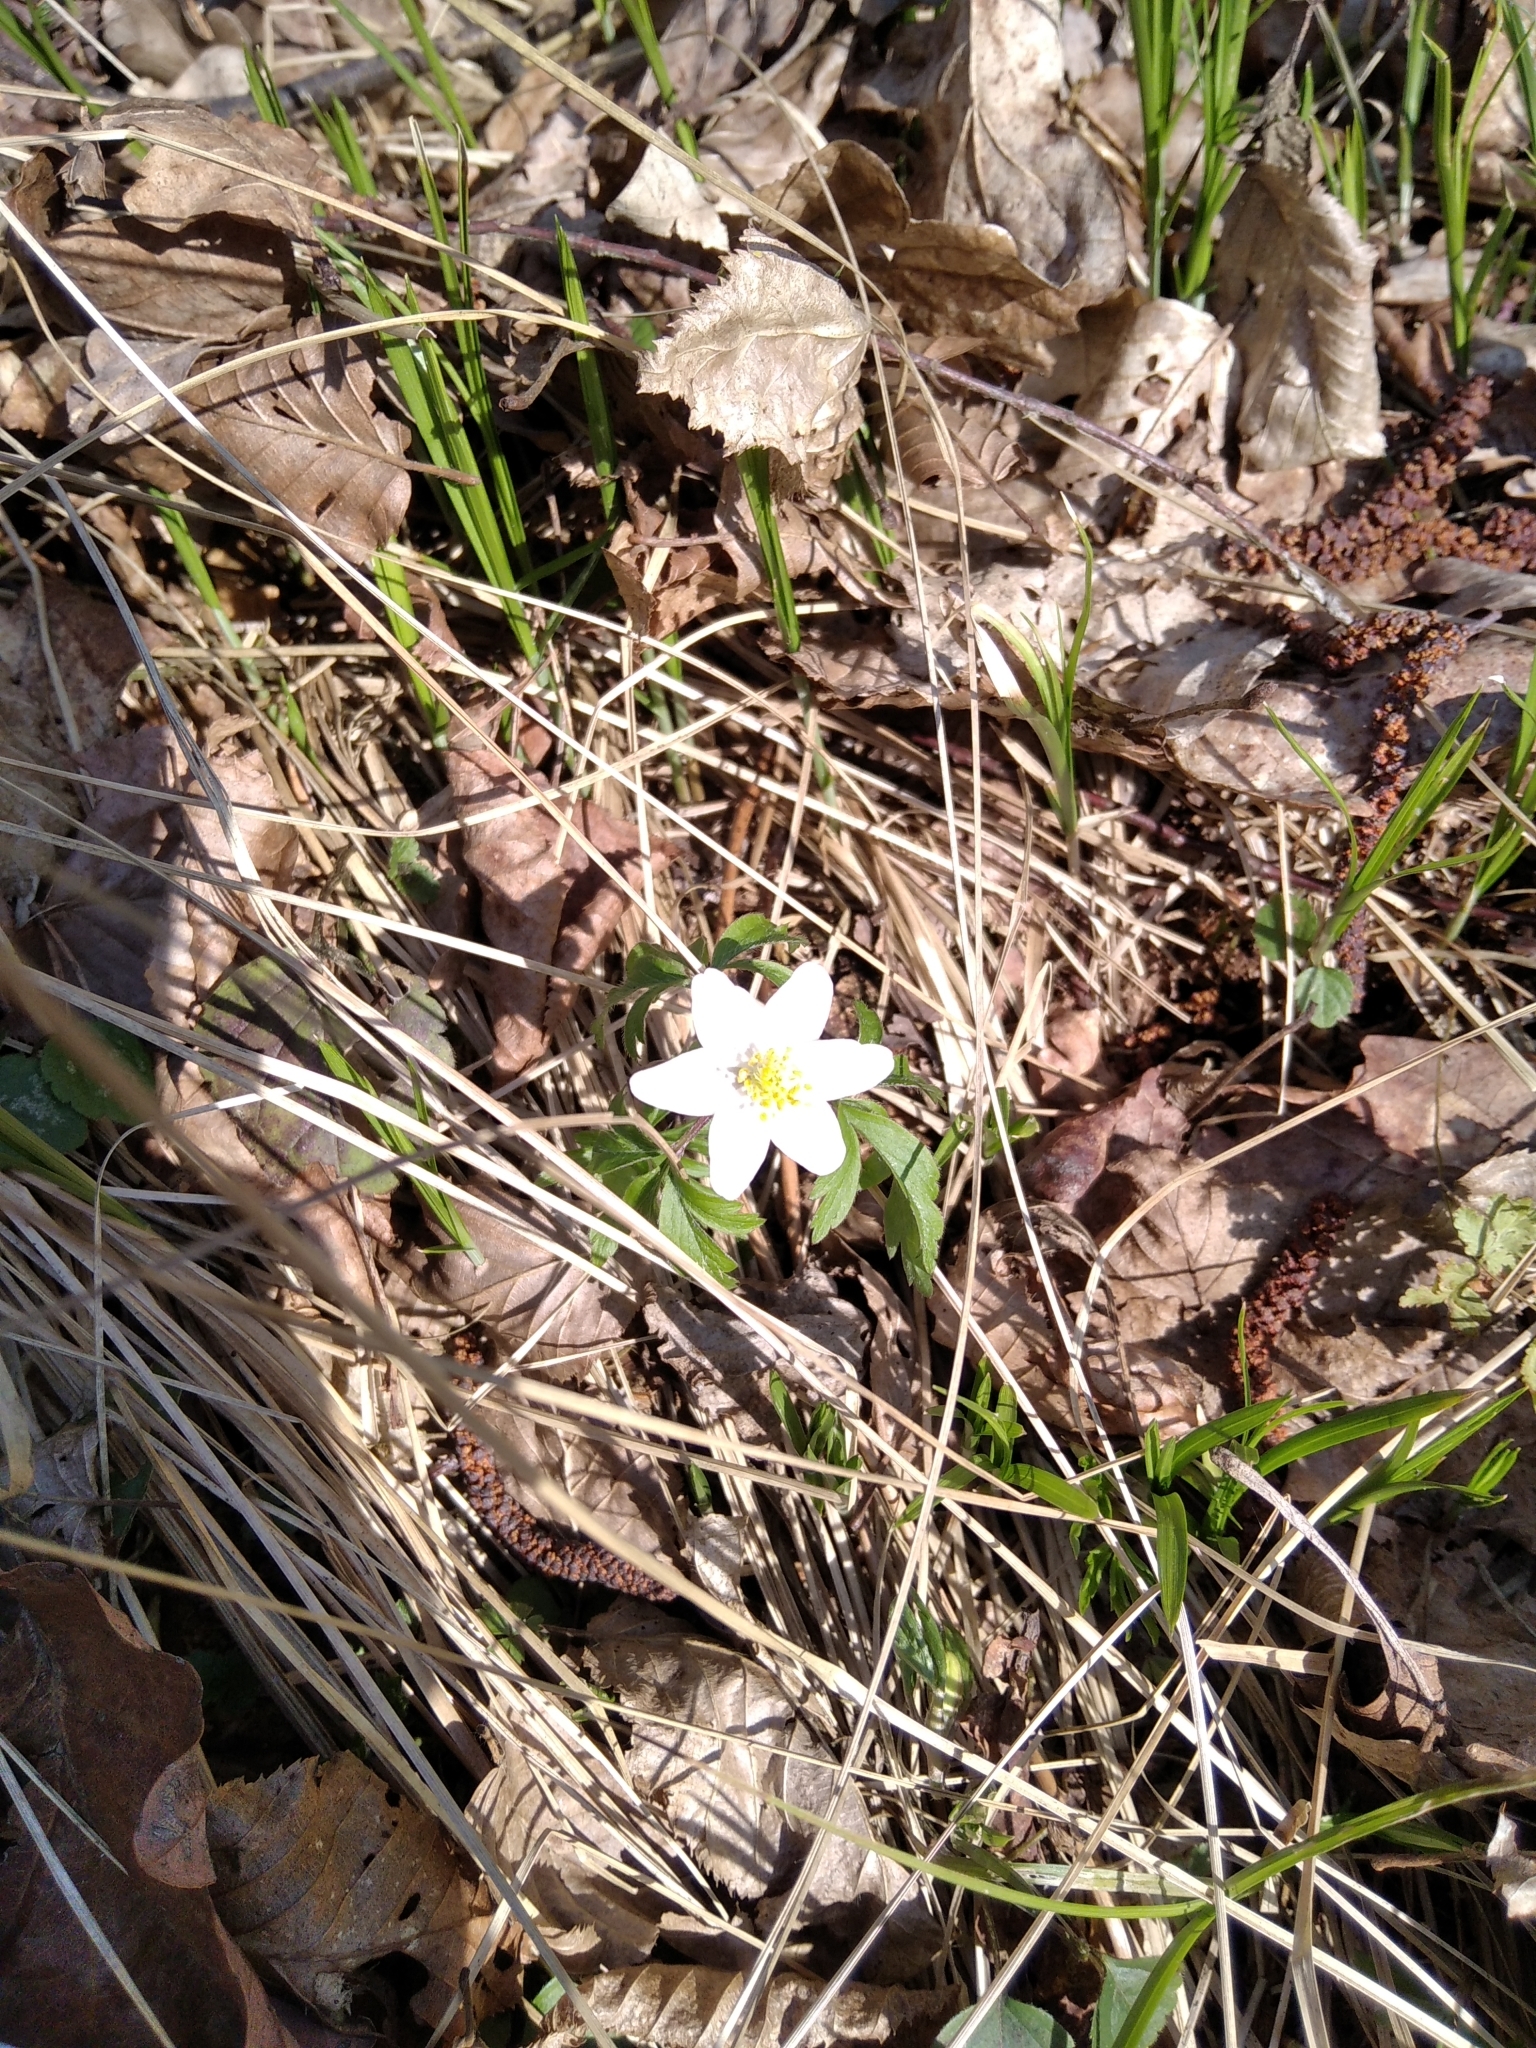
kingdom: Plantae
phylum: Tracheophyta
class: Magnoliopsida
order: Ranunculales
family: Ranunculaceae
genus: Anemone
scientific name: Anemone nemorosa
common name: Wood anemone
